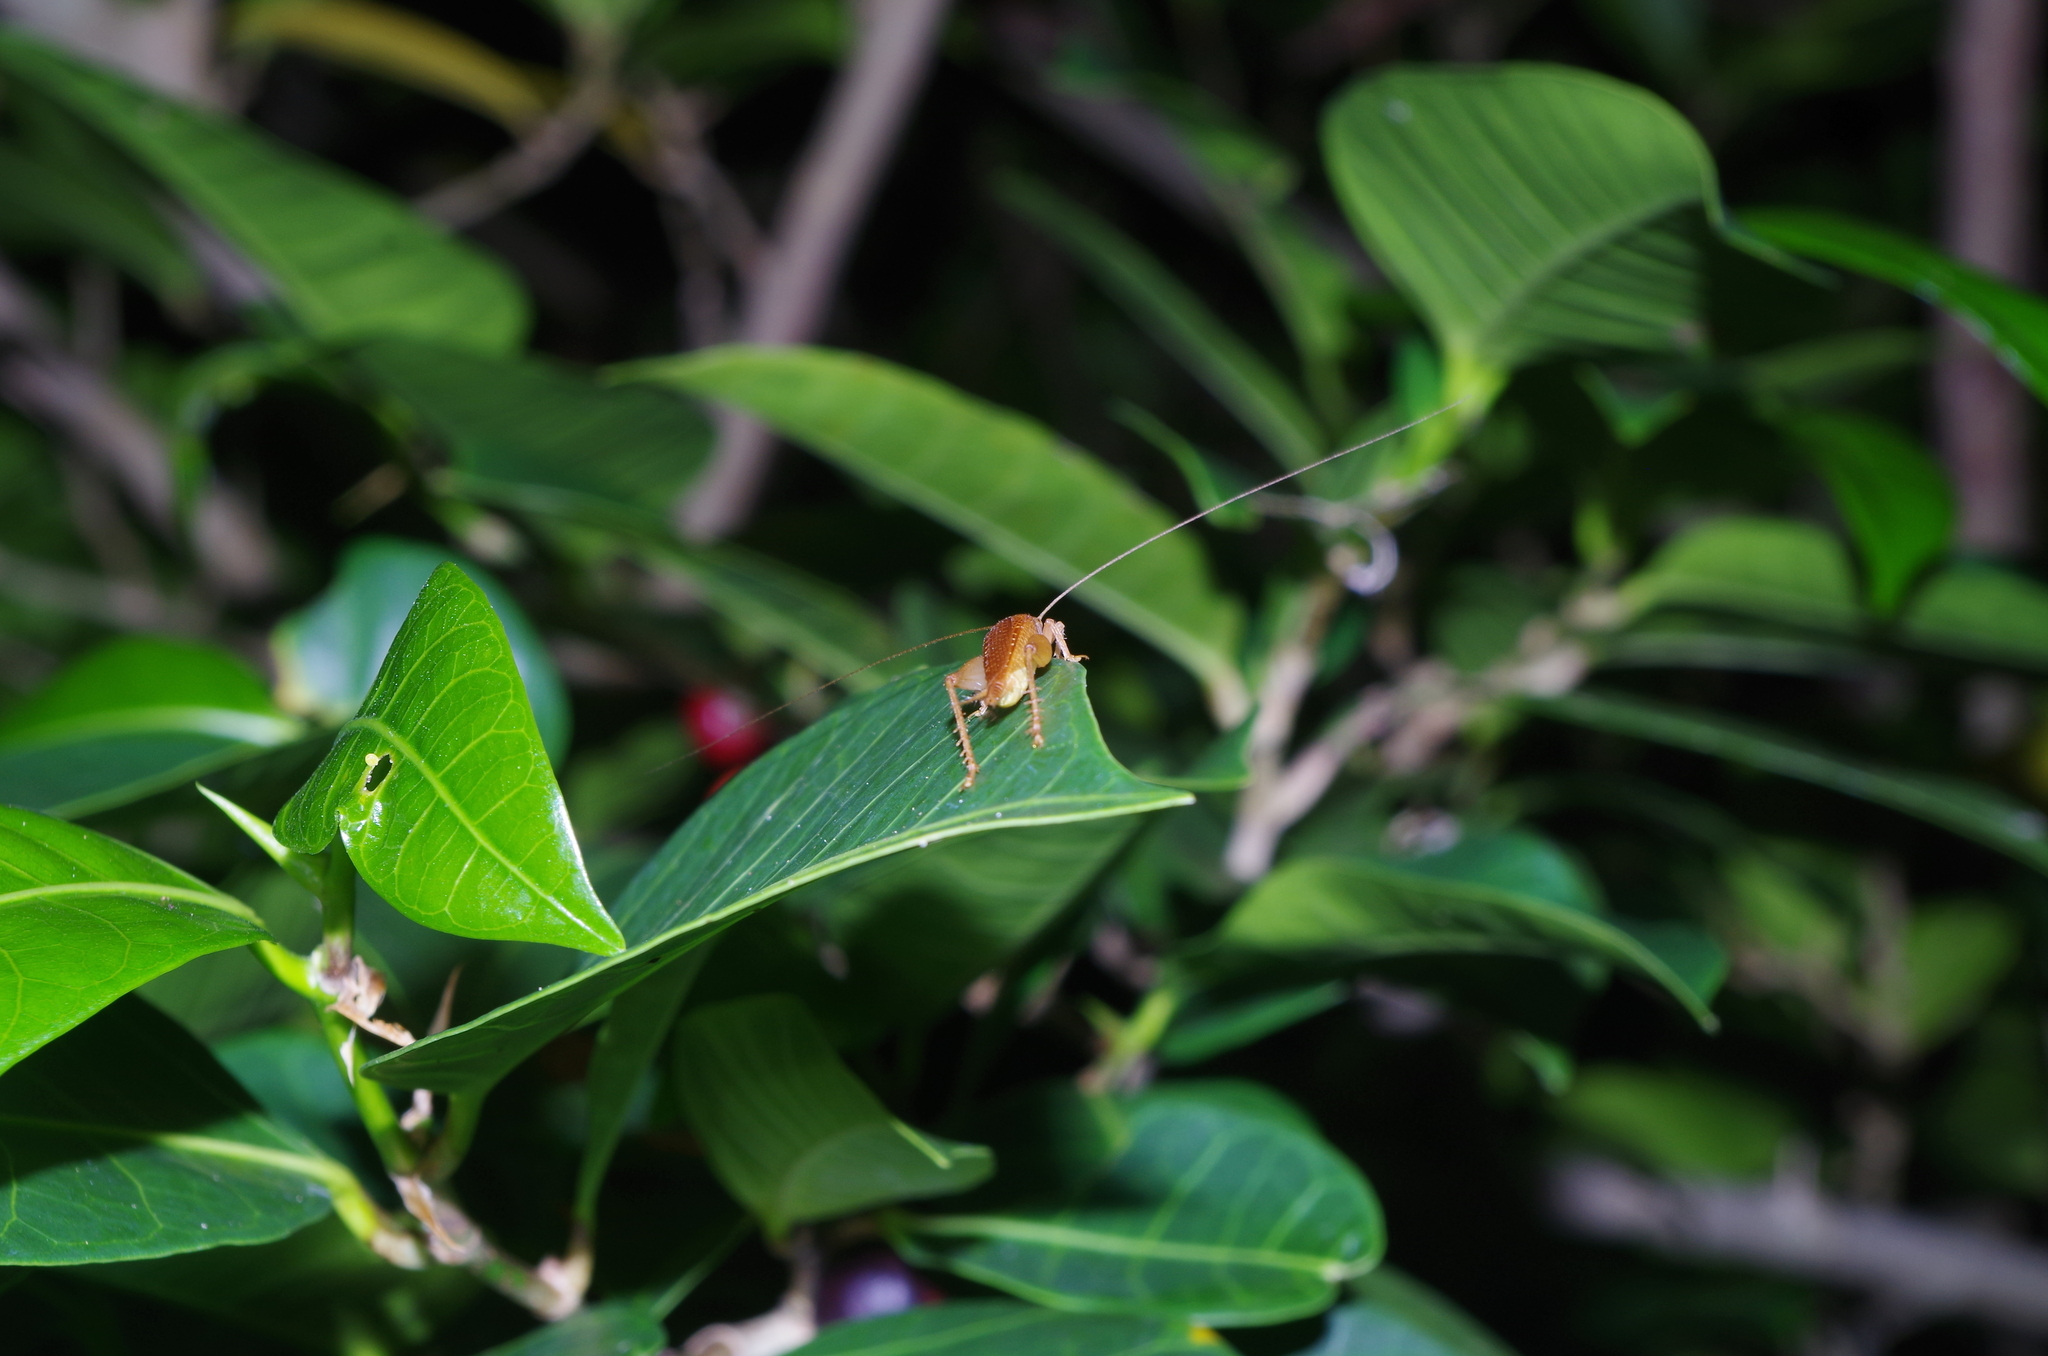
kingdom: Animalia
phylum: Arthropoda
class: Insecta
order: Orthoptera
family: Gryllidae
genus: Aphonoides
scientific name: Aphonoides rufescens
